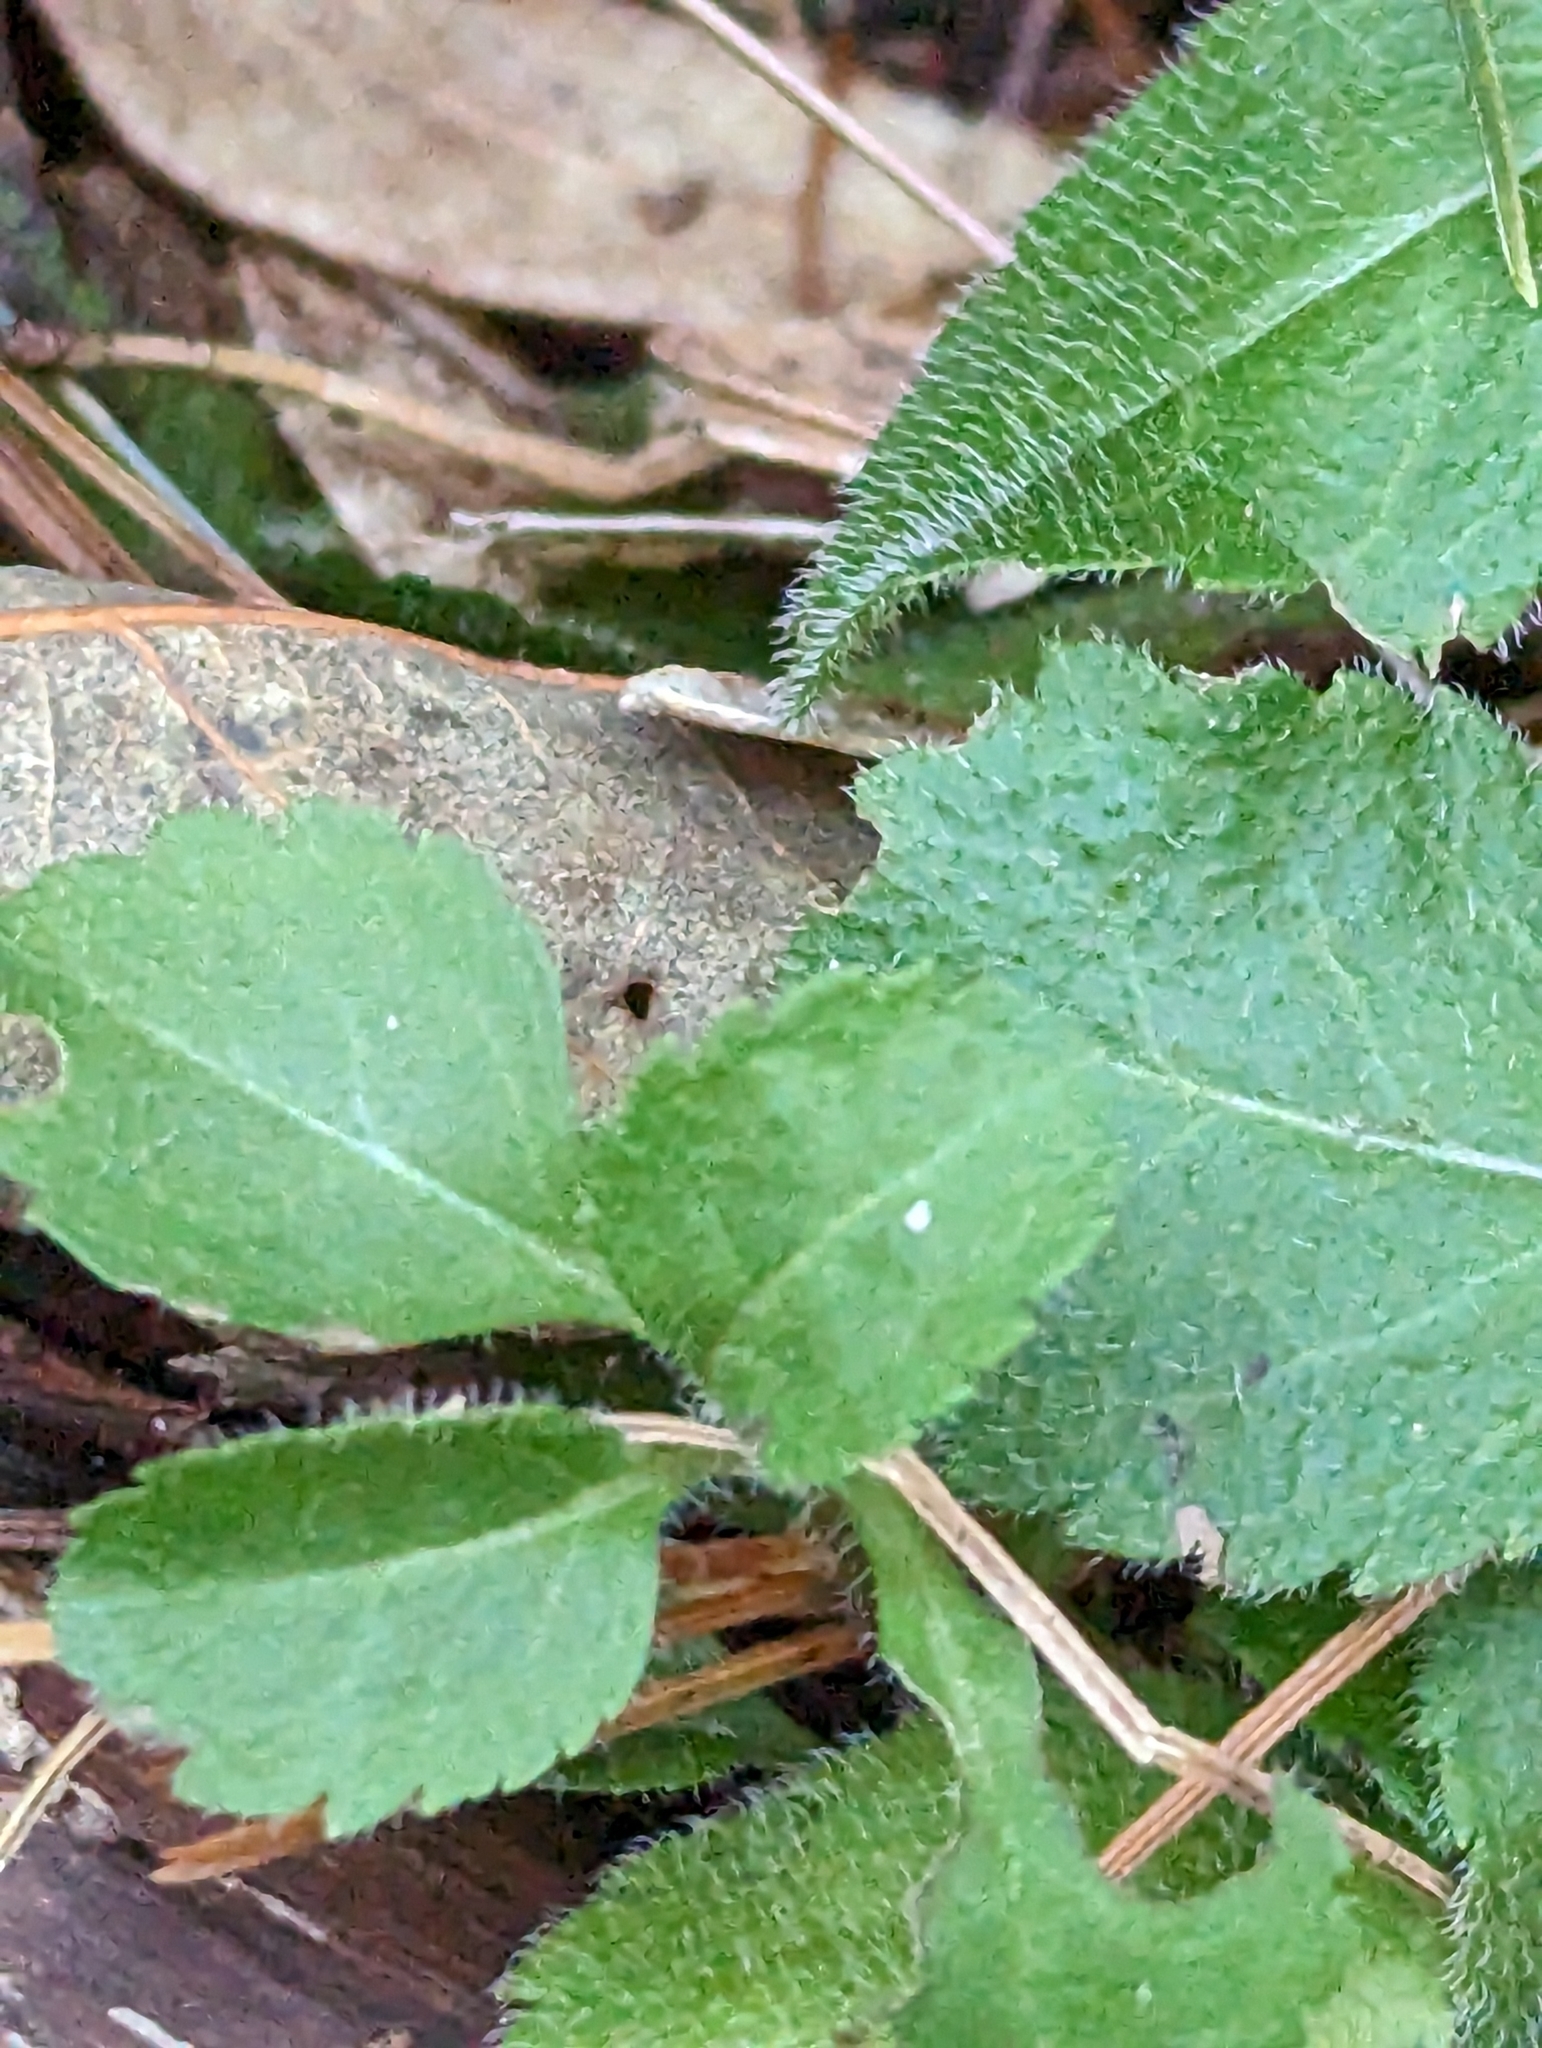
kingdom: Plantae
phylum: Tracheophyta
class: Magnoliopsida
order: Lamiales
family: Plantaginaceae
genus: Veronica
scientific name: Veronica officinalis
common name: Common speedwell
